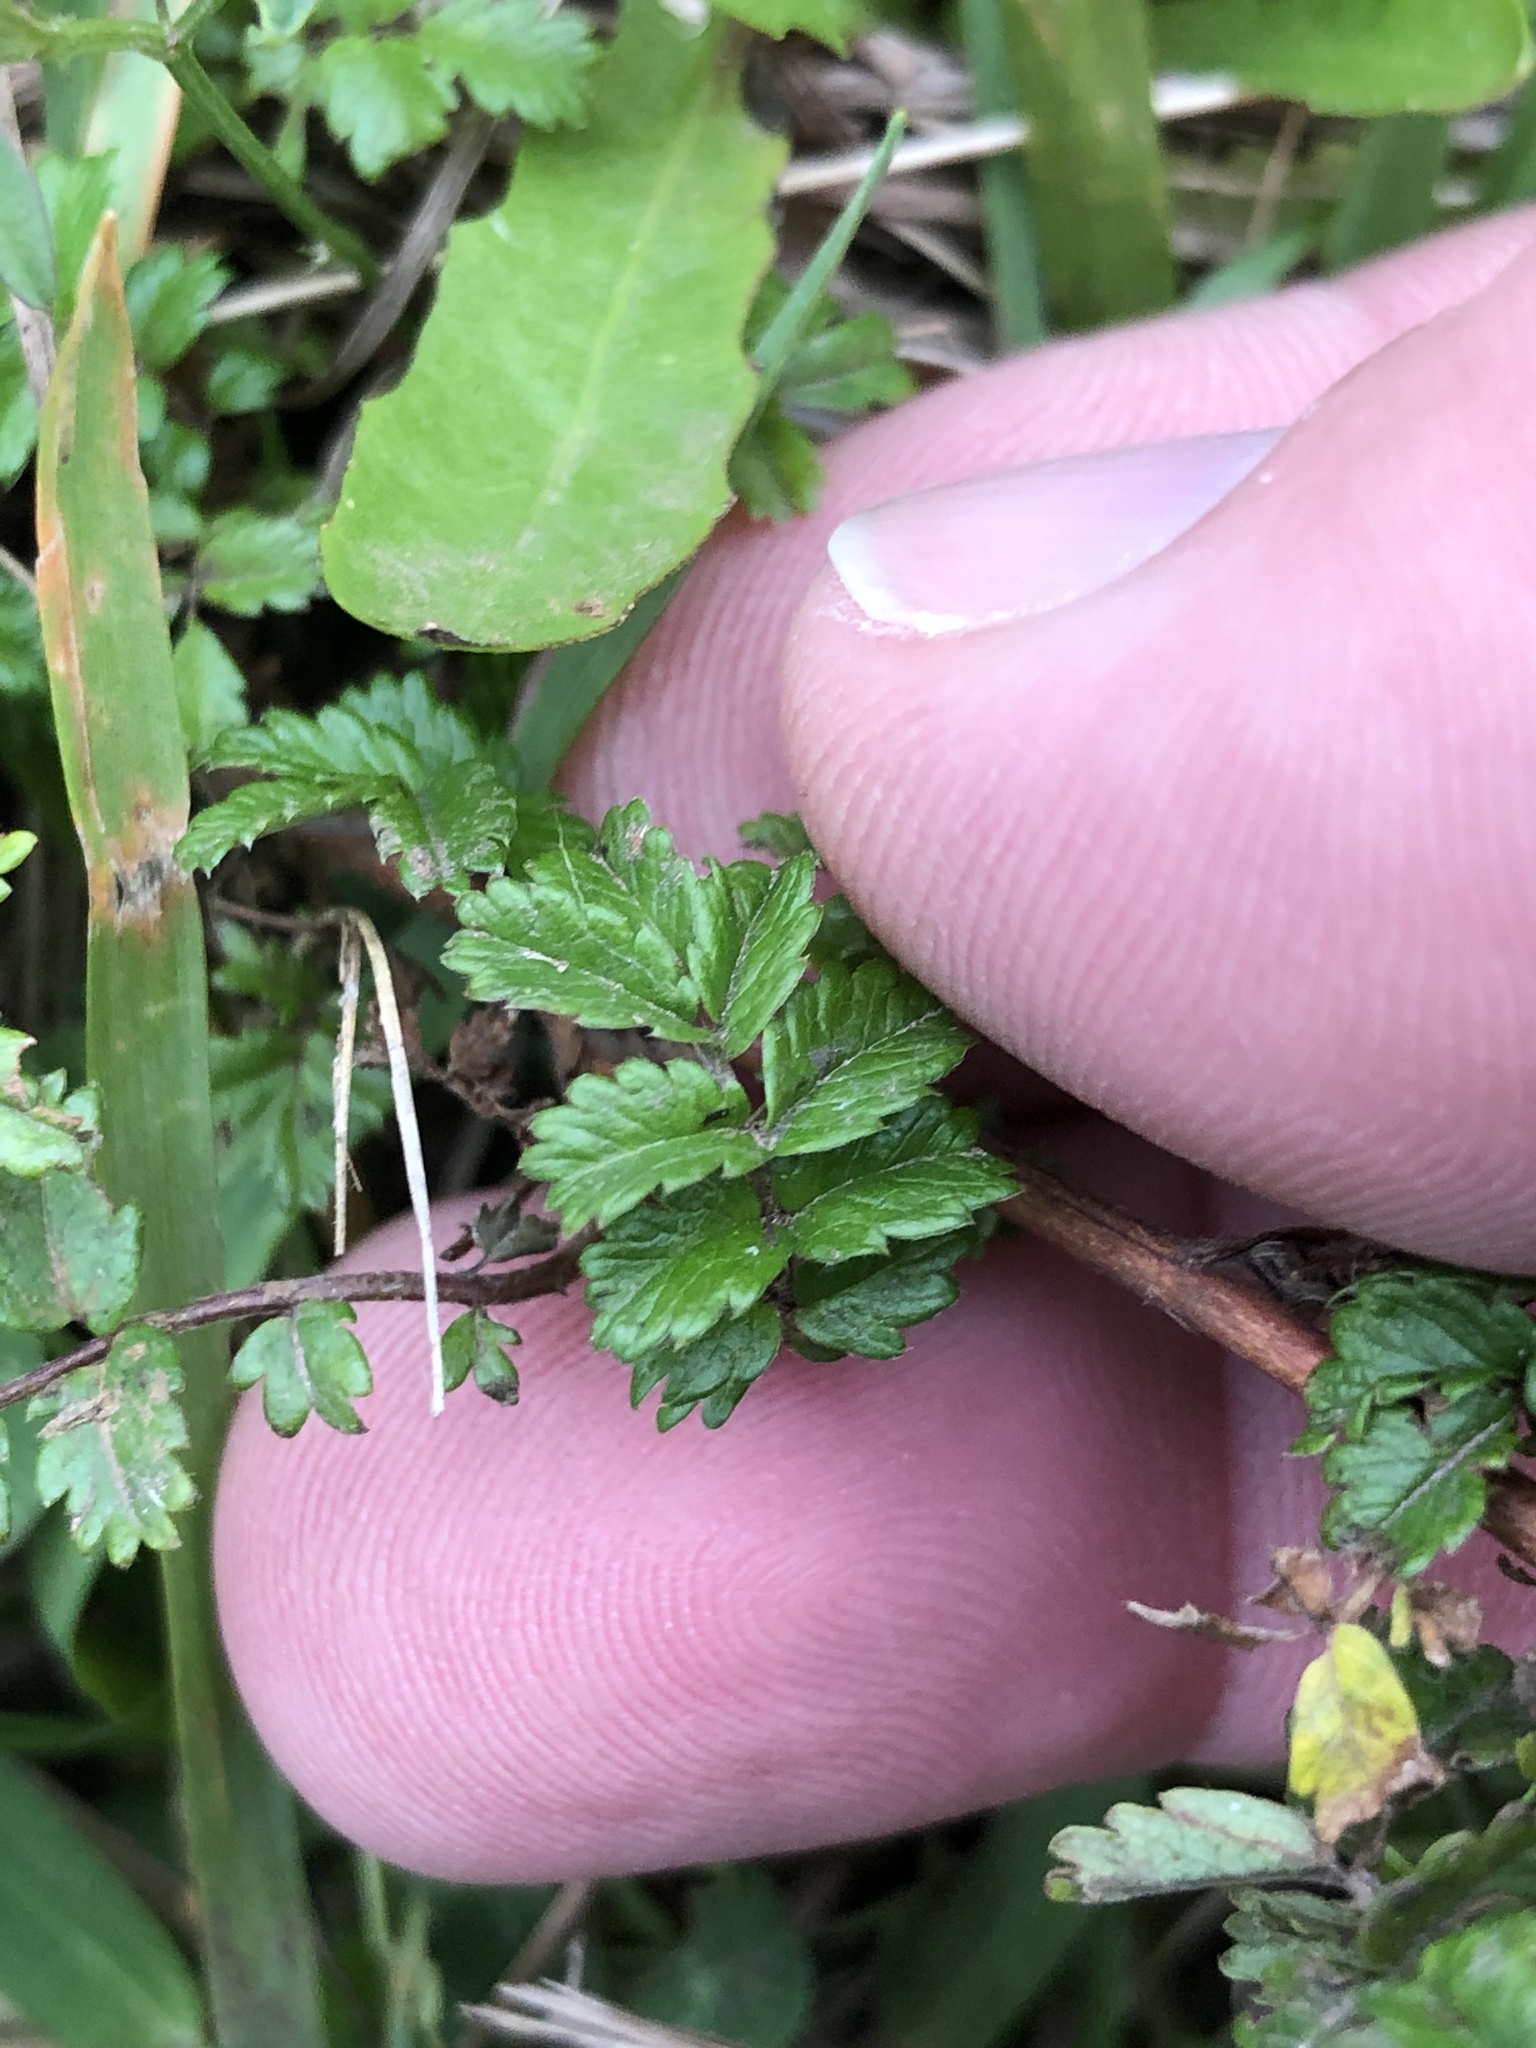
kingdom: Plantae
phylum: Tracheophyta
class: Magnoliopsida
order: Rosales
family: Rosaceae
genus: Acaena
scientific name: Acaena novae-zelandiae
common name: Pirri-pirri-bur
